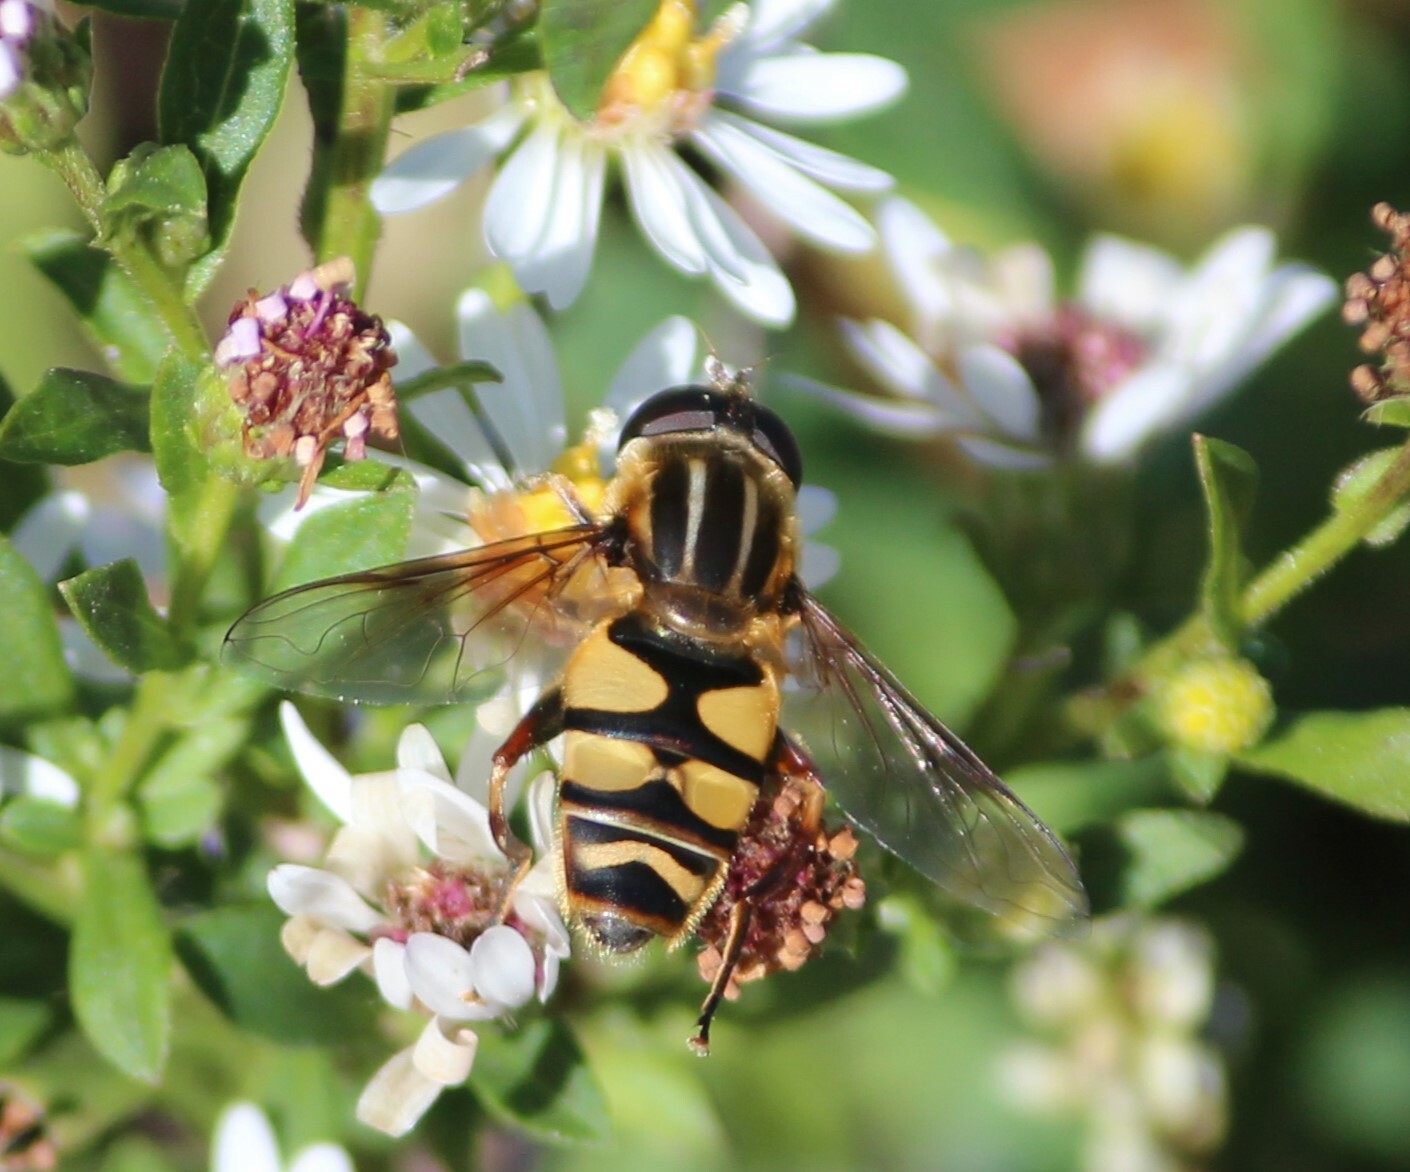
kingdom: Animalia
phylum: Arthropoda
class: Insecta
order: Diptera
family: Syrphidae
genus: Helophilus
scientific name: Helophilus fasciatus
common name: Narrow-headed marsh fly
